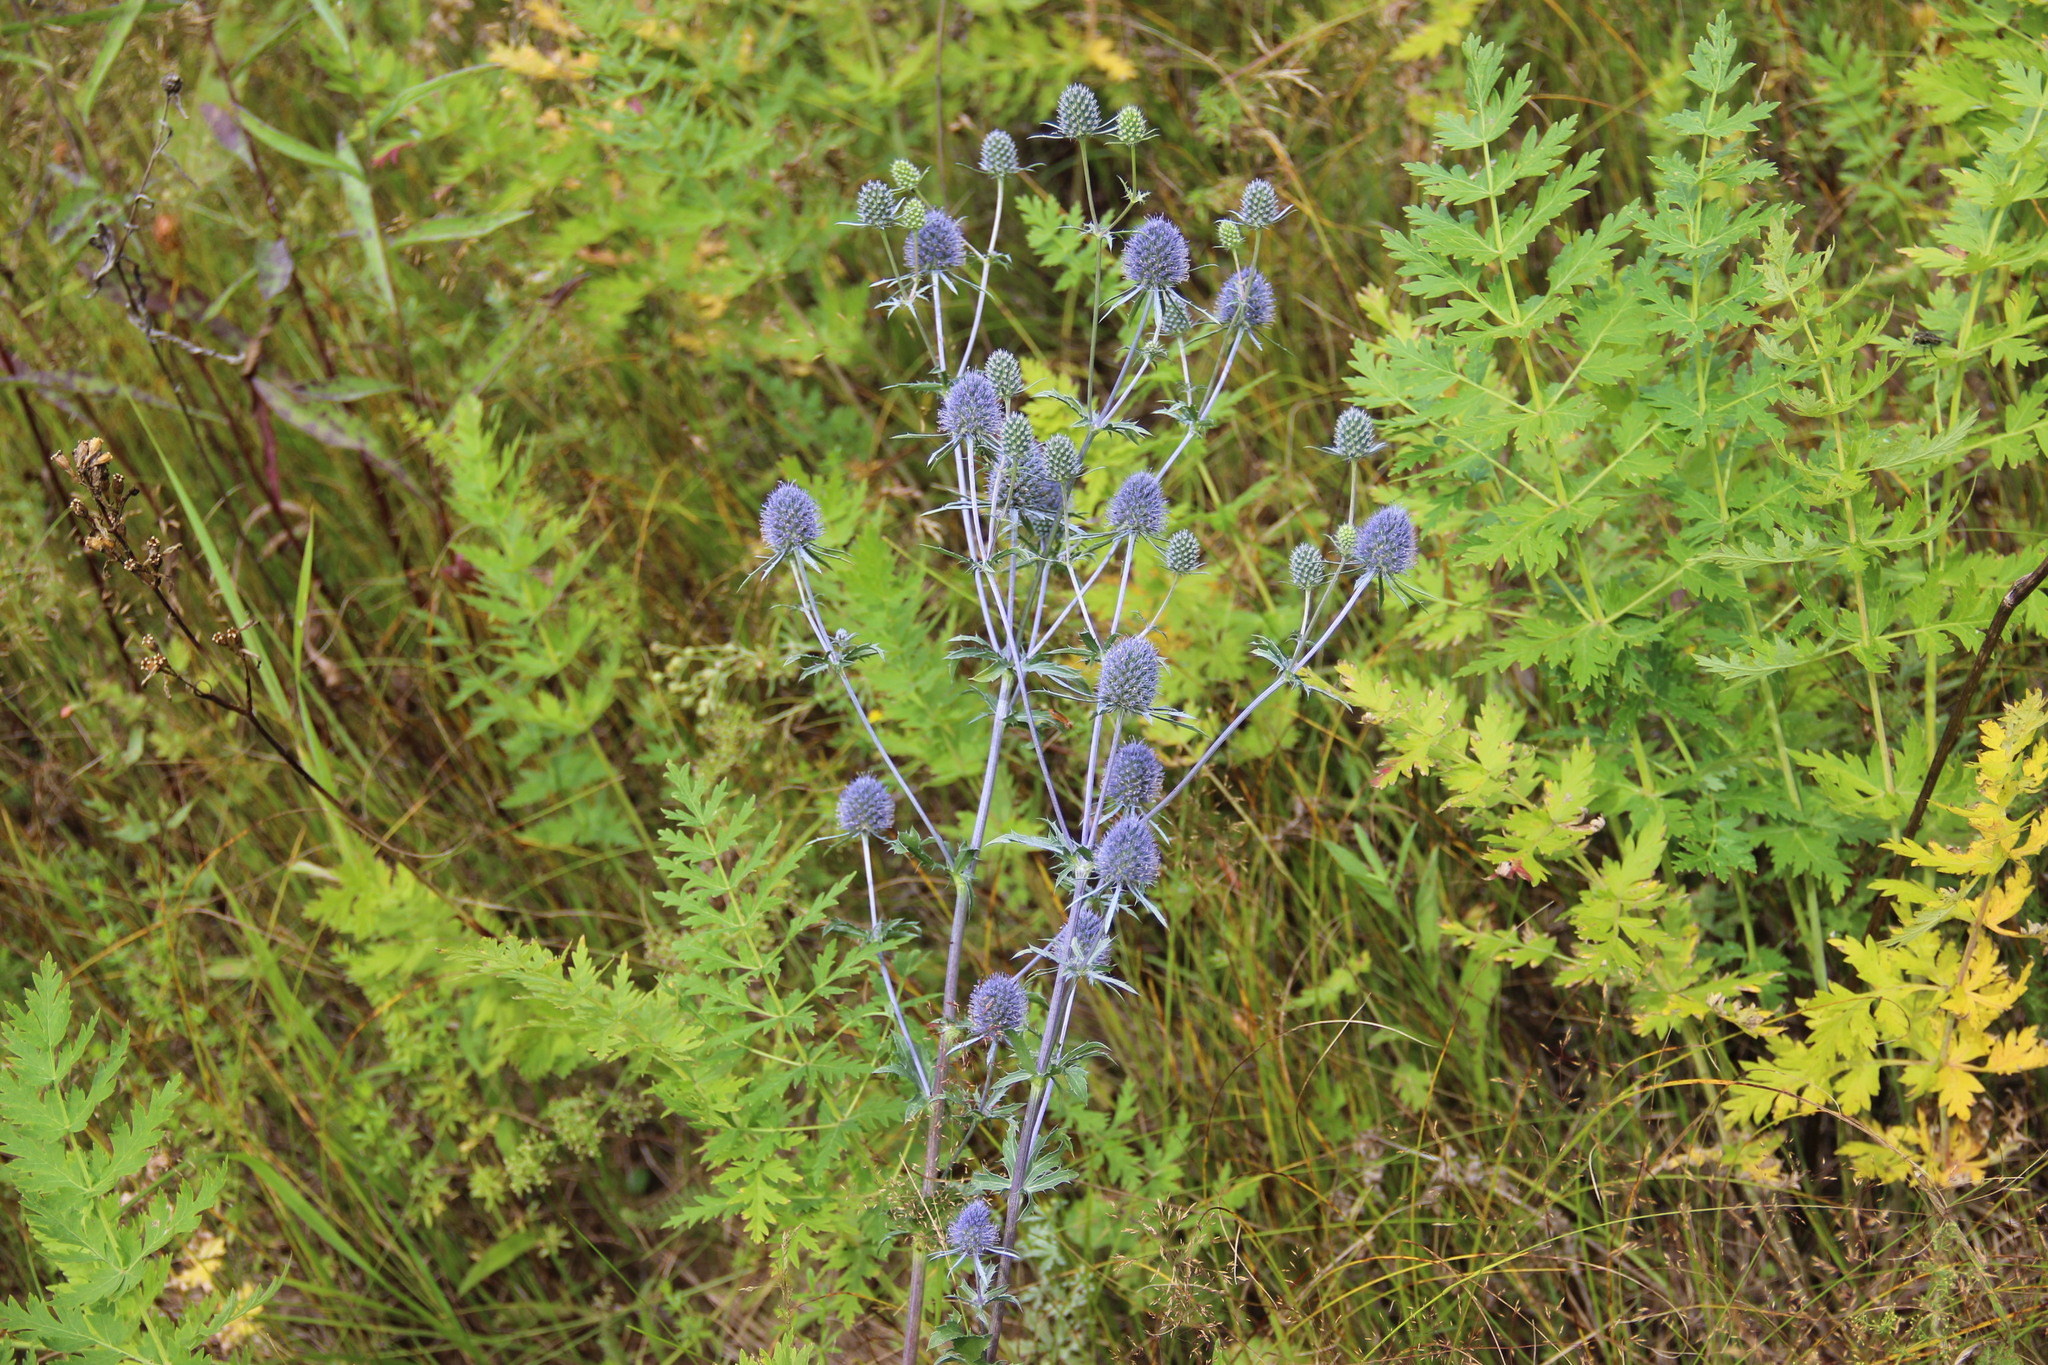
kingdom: Plantae
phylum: Tracheophyta
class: Magnoliopsida
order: Apiales
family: Apiaceae
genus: Eryngium
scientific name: Eryngium planum
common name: Blue eryngo
